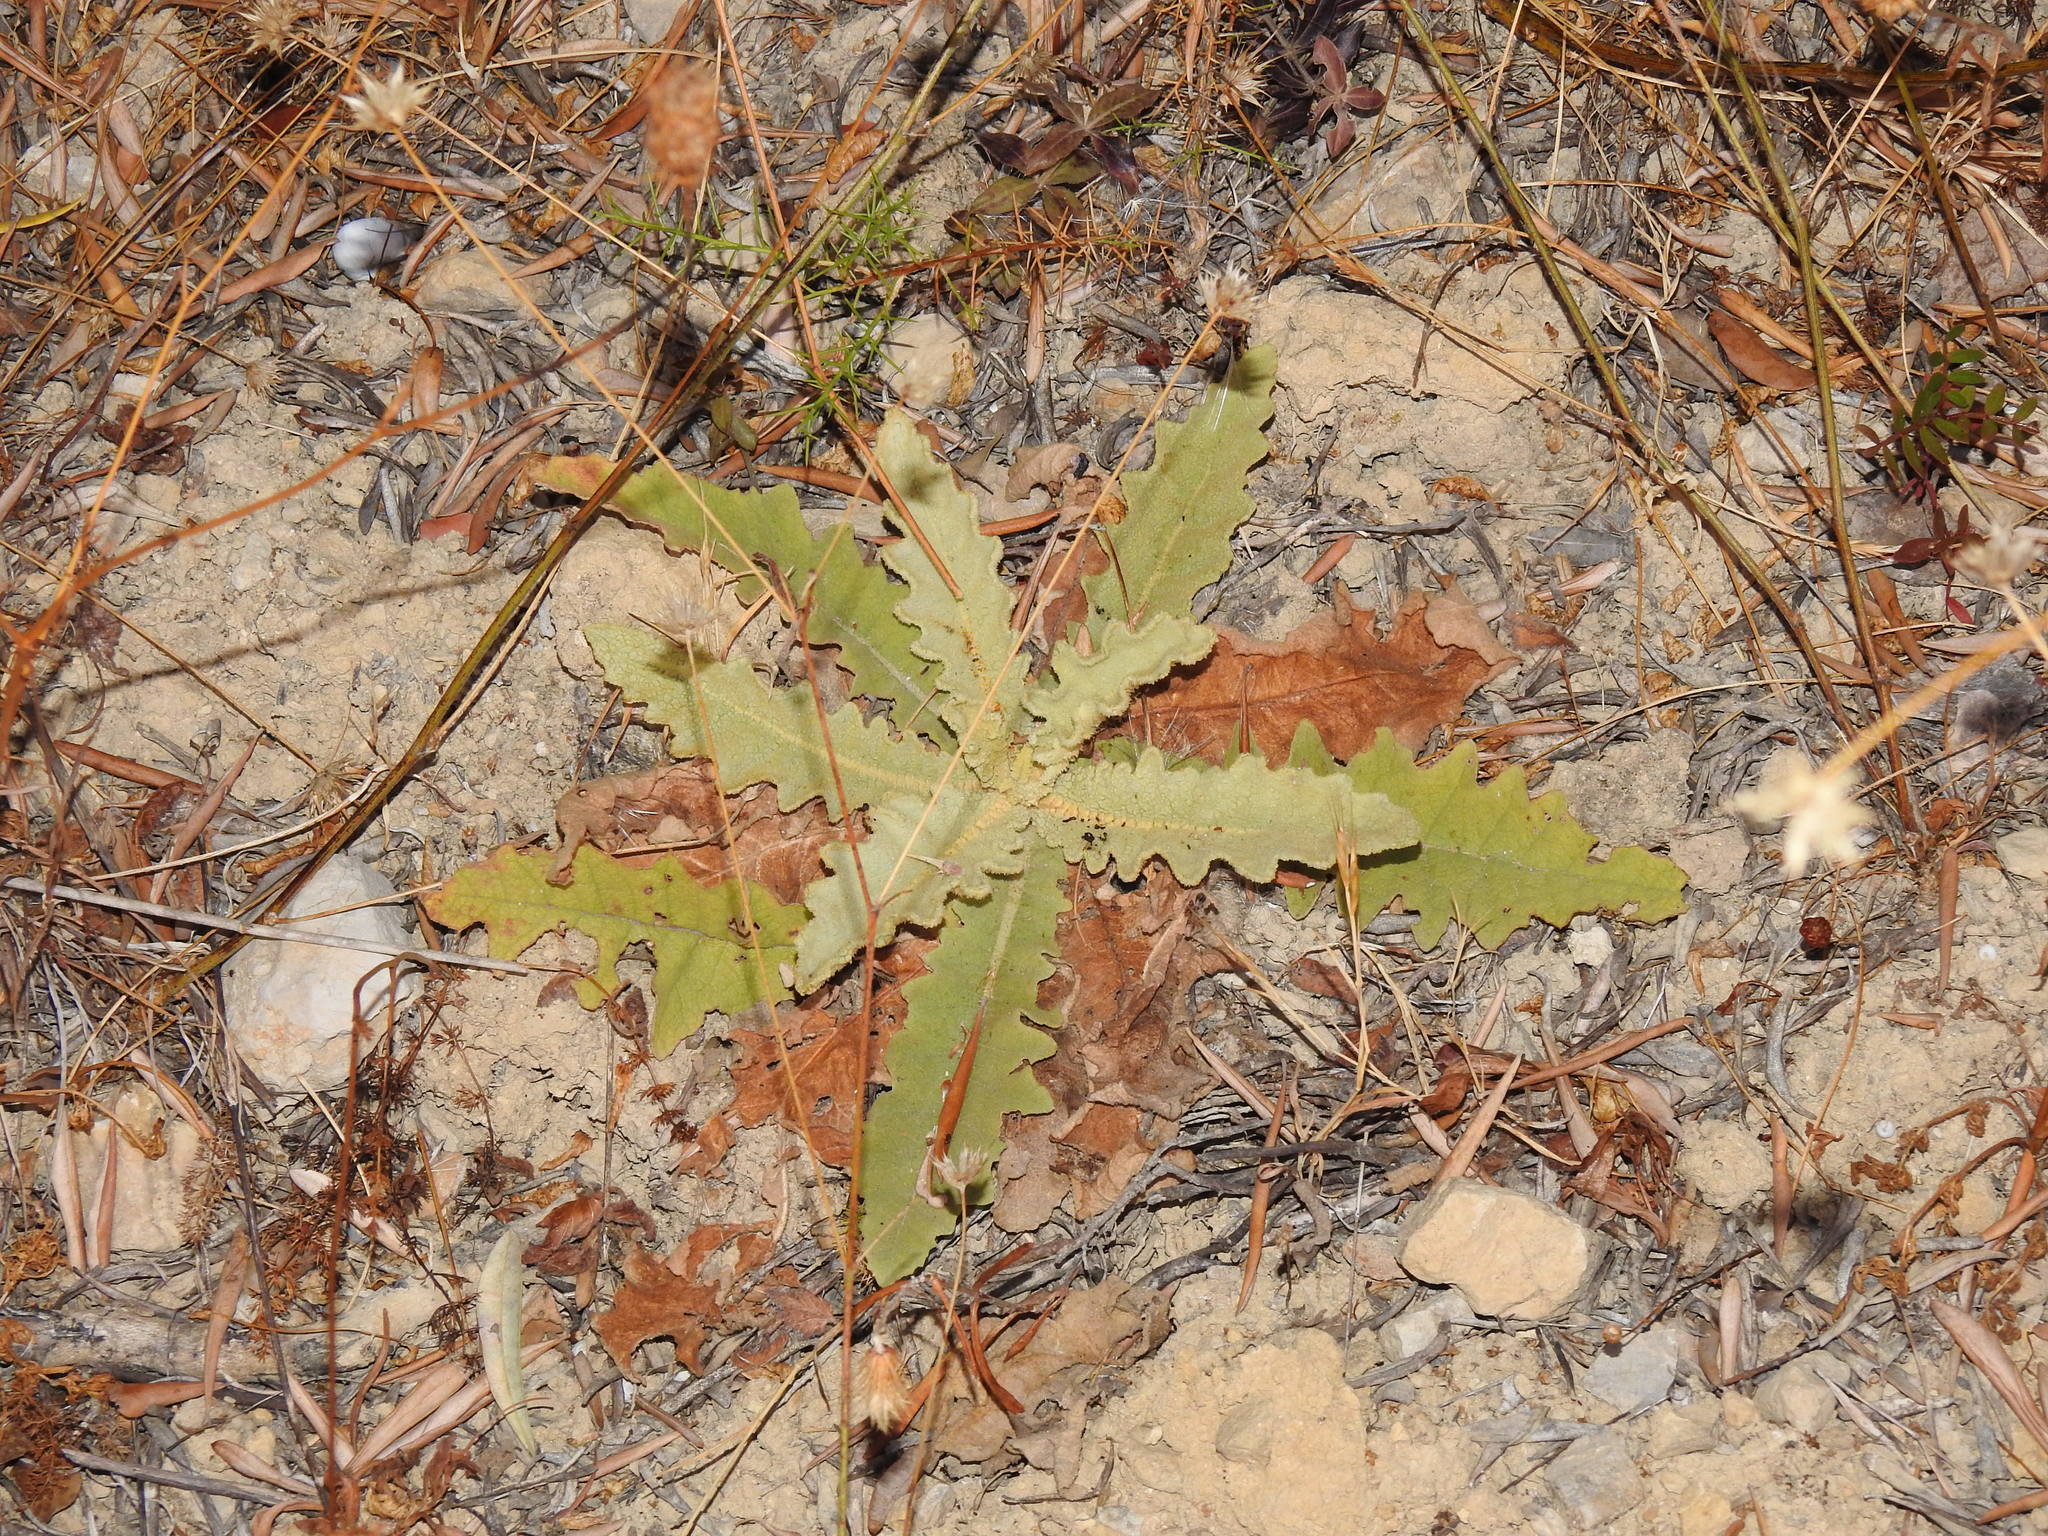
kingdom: Plantae
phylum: Tracheophyta
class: Magnoliopsida
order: Lamiales
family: Scrophulariaceae
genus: Verbascum
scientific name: Verbascum sinuatum
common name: Wavyleaf mullein
